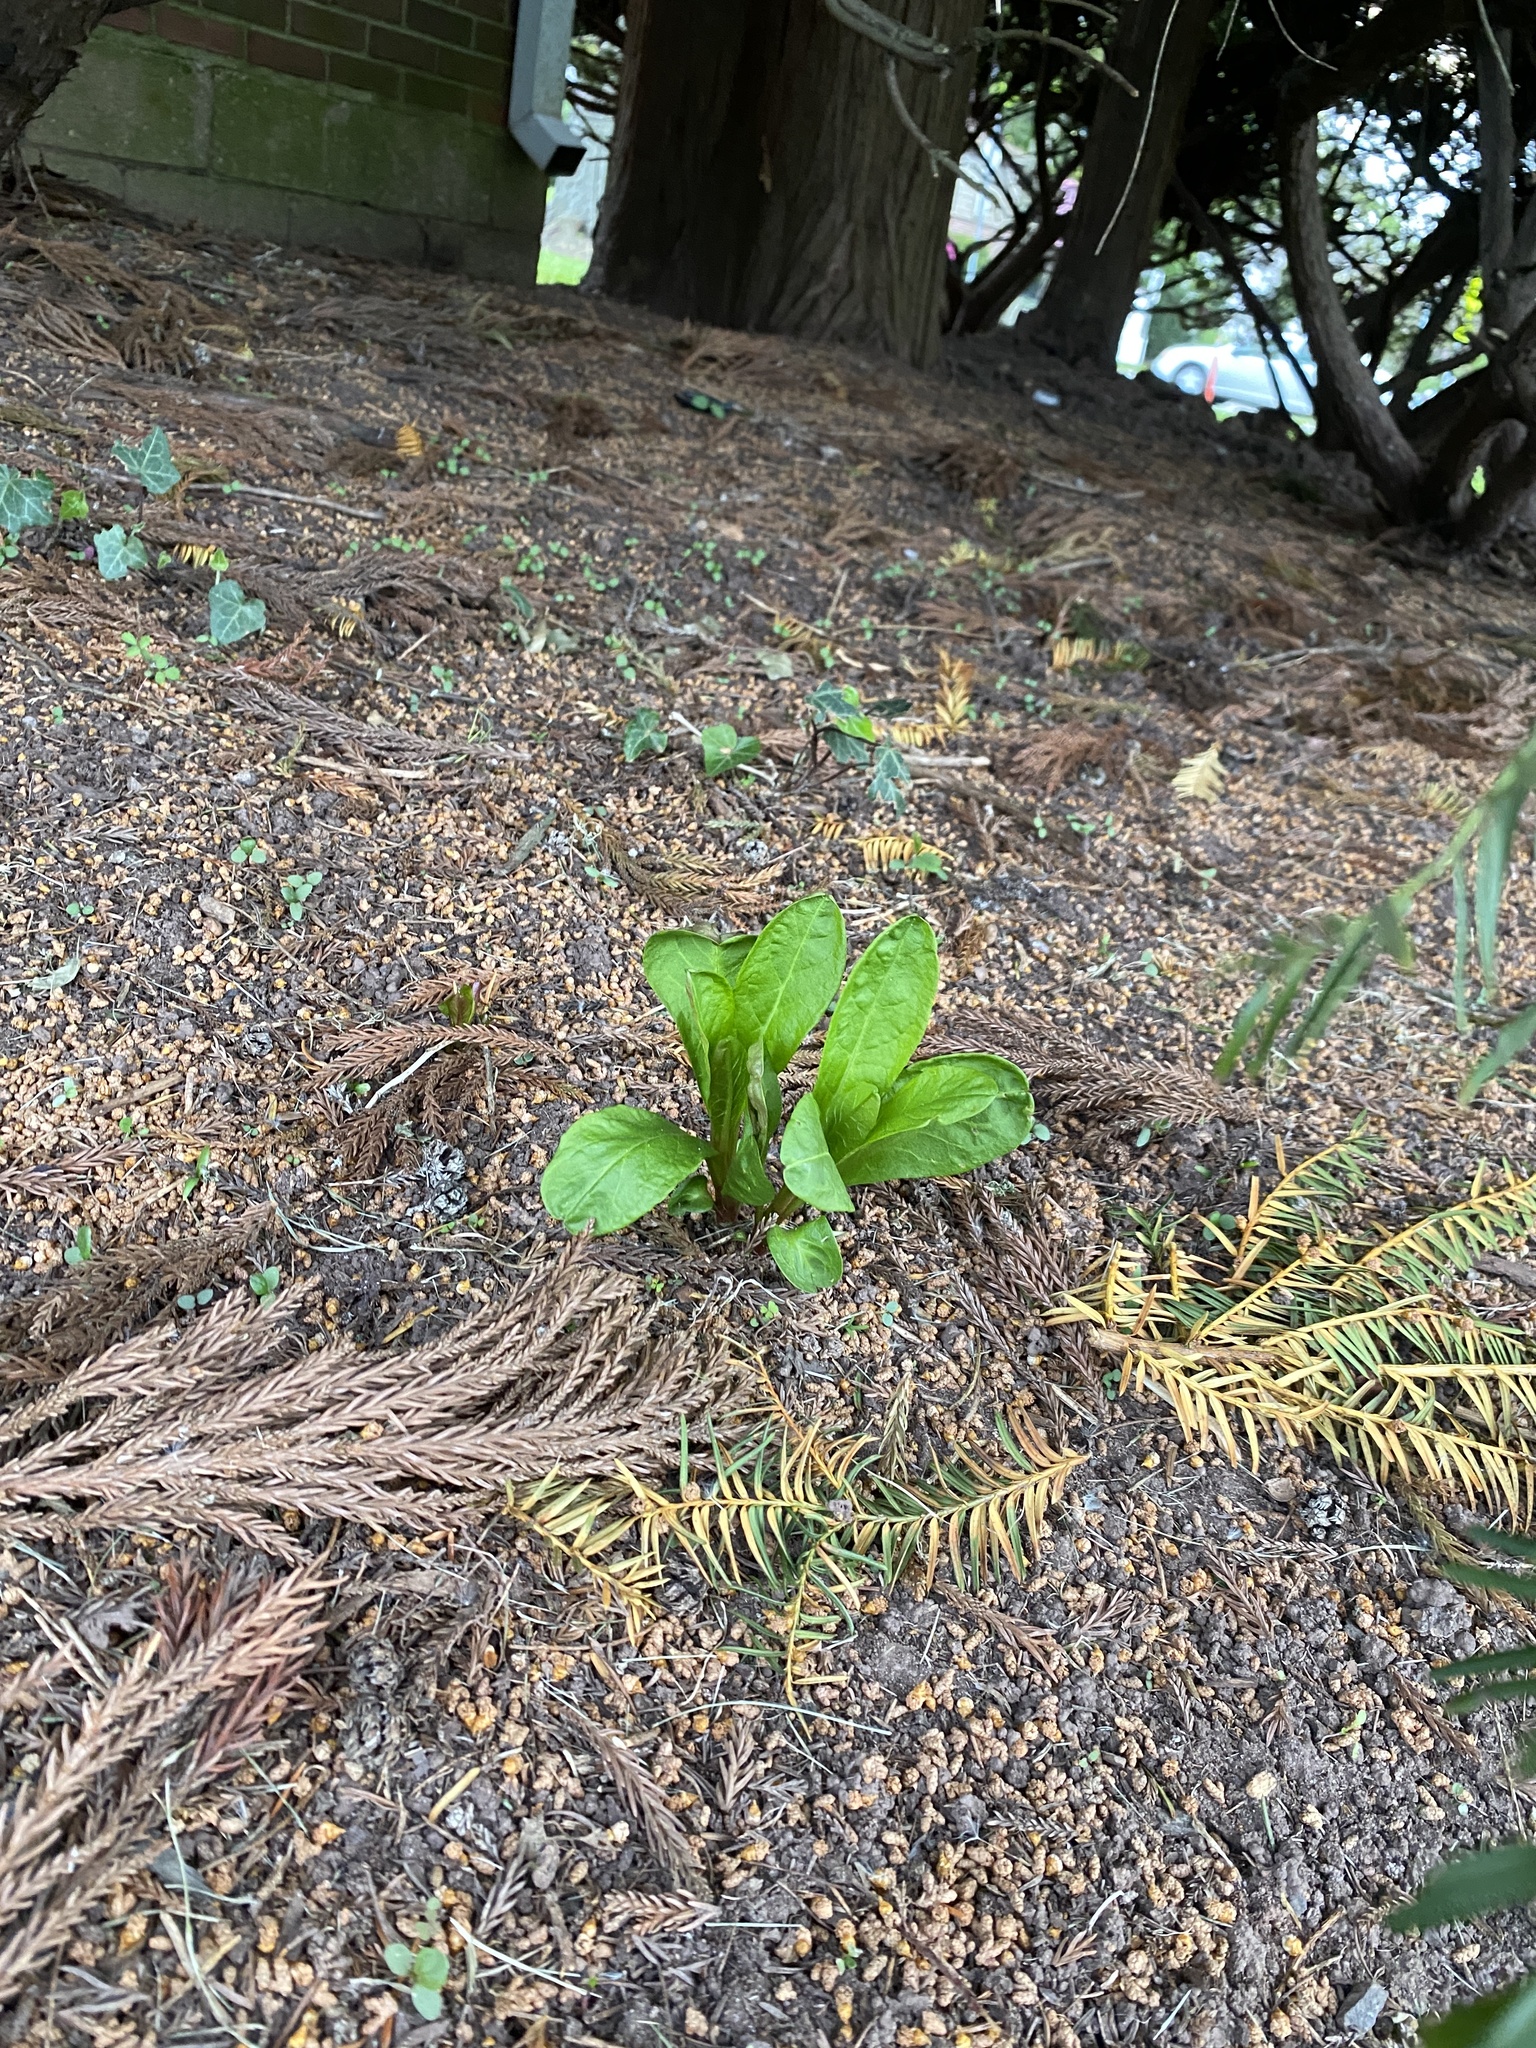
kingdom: Plantae
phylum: Tracheophyta
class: Magnoliopsida
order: Caryophyllales
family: Phytolaccaceae
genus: Phytolacca
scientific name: Phytolacca americana
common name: American pokeweed
